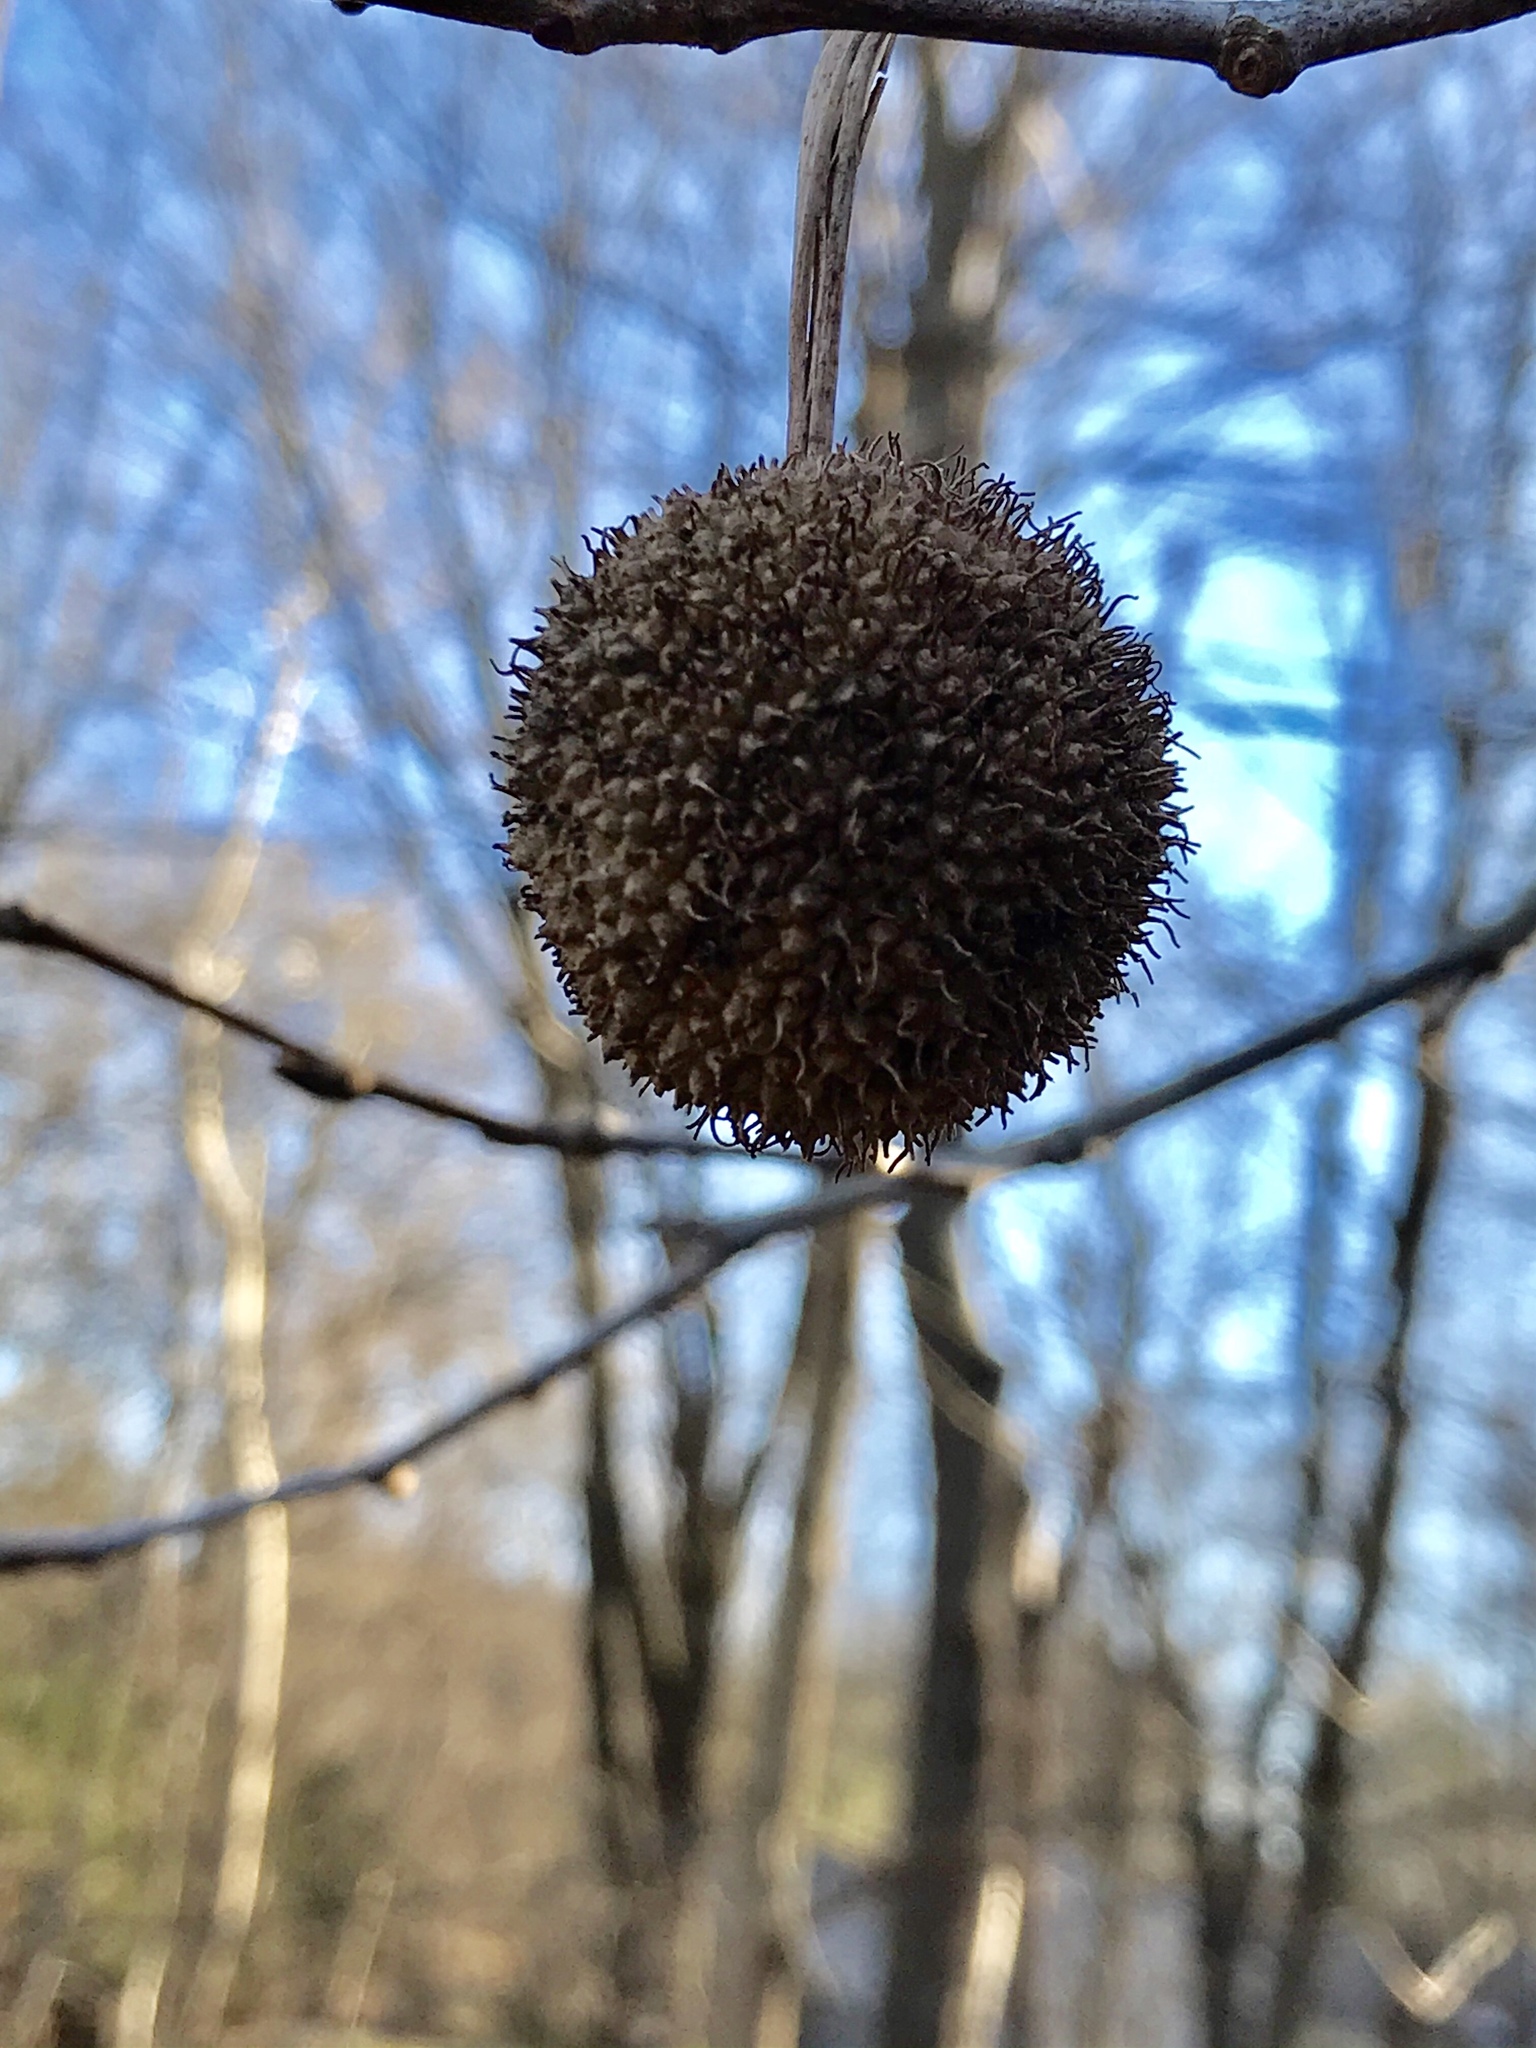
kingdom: Plantae
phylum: Tracheophyta
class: Magnoliopsida
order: Proteales
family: Platanaceae
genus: Platanus
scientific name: Platanus occidentalis
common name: American sycamore
